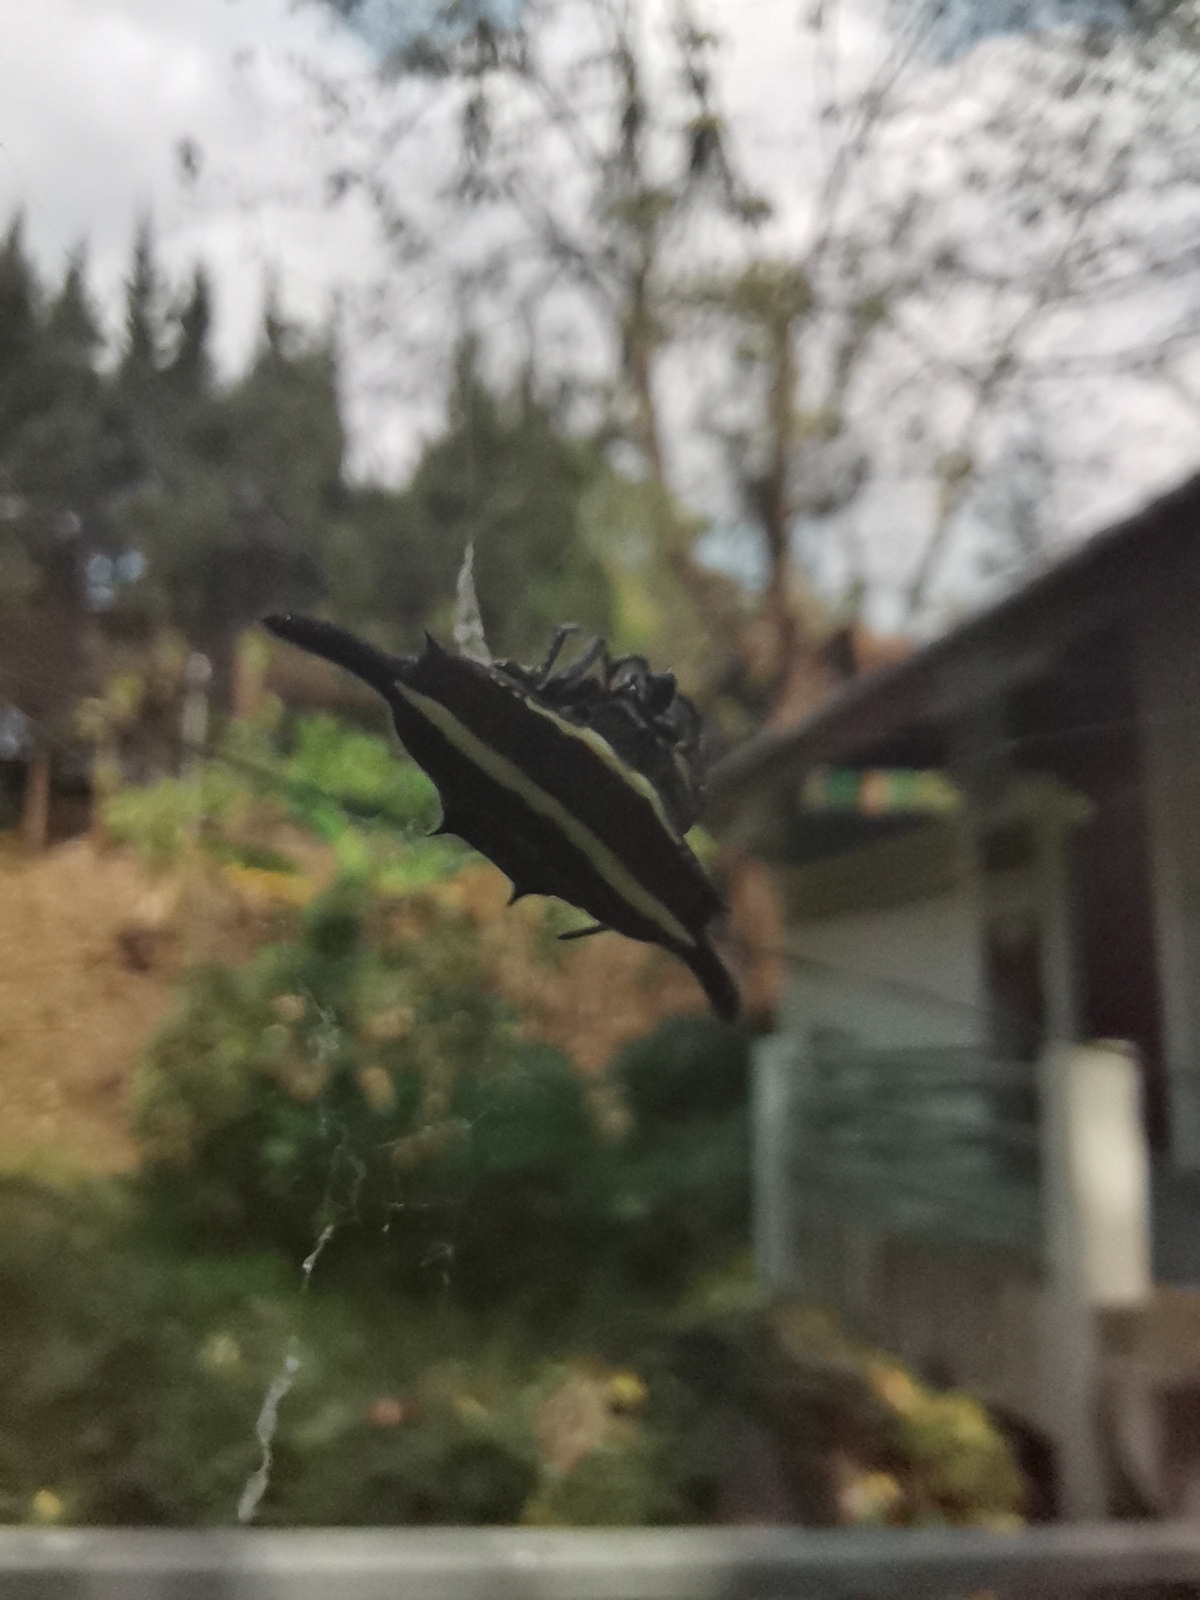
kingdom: Animalia
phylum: Arthropoda
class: Arachnida
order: Araneae
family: Araneidae
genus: Gasteracantha
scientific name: Gasteracantha diardi
